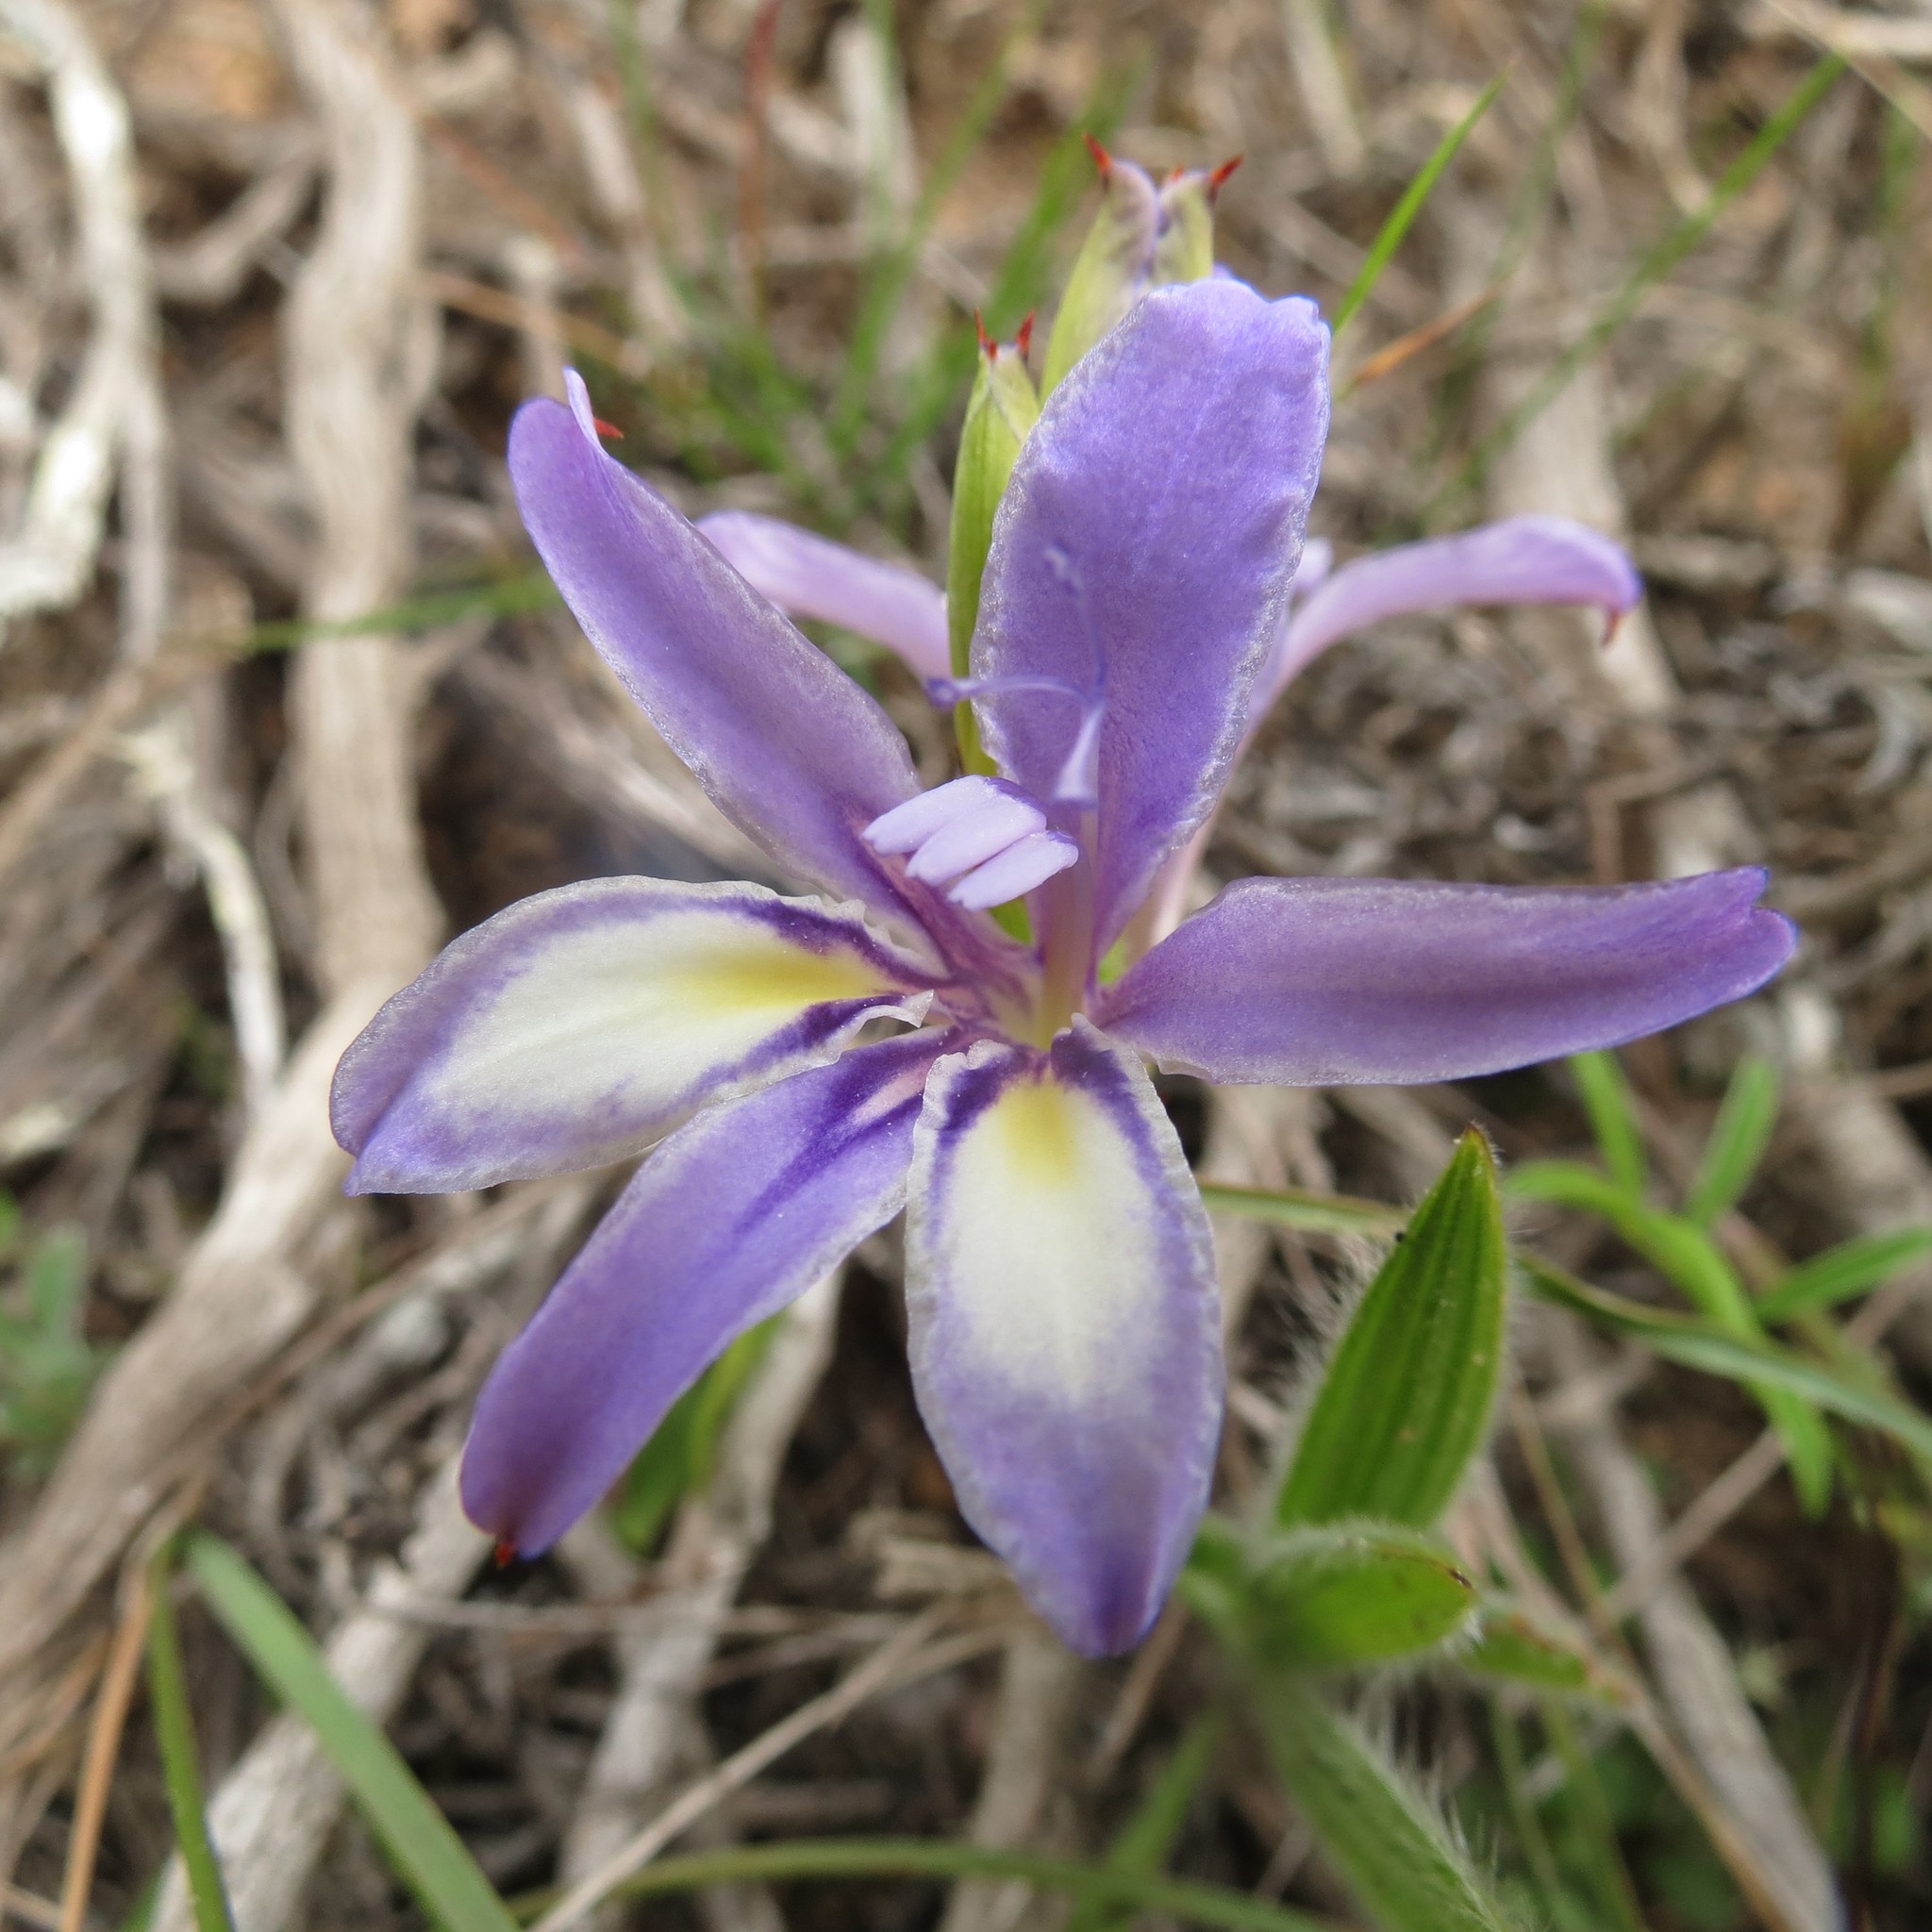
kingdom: Plantae
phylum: Tracheophyta
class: Liliopsida
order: Asparagales
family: Iridaceae
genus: Babiana
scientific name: Babiana fourcadei
